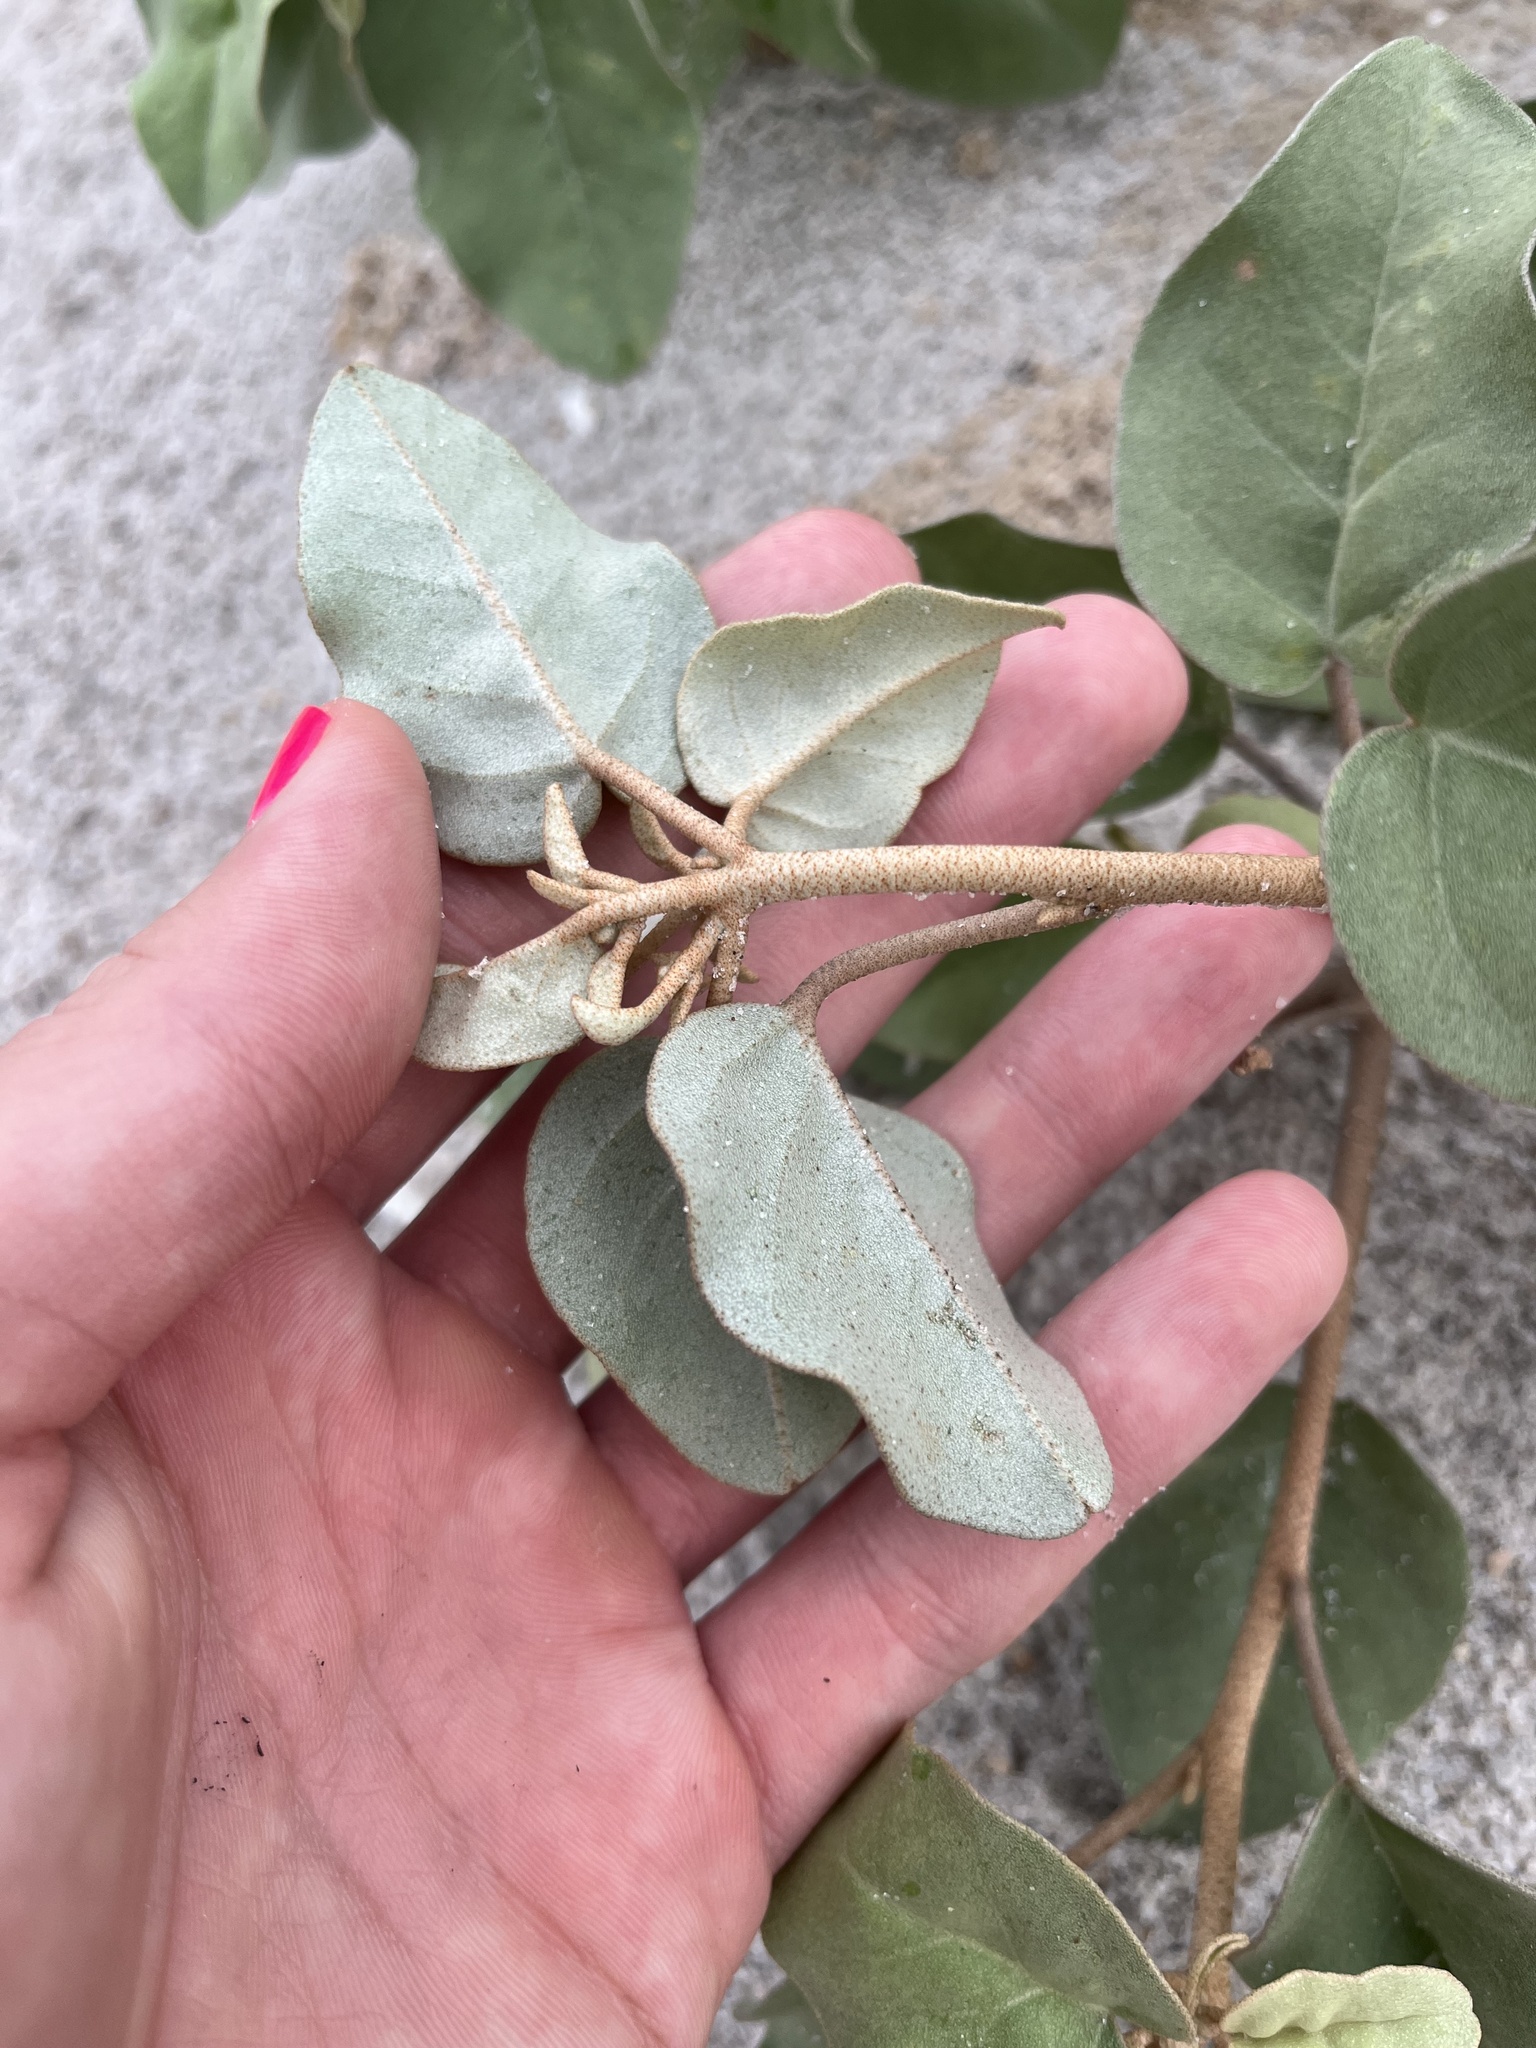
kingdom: Plantae
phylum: Tracheophyta
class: Magnoliopsida
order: Malpighiales
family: Euphorbiaceae
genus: Croton
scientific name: Croton punctatus
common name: Beach-tea
